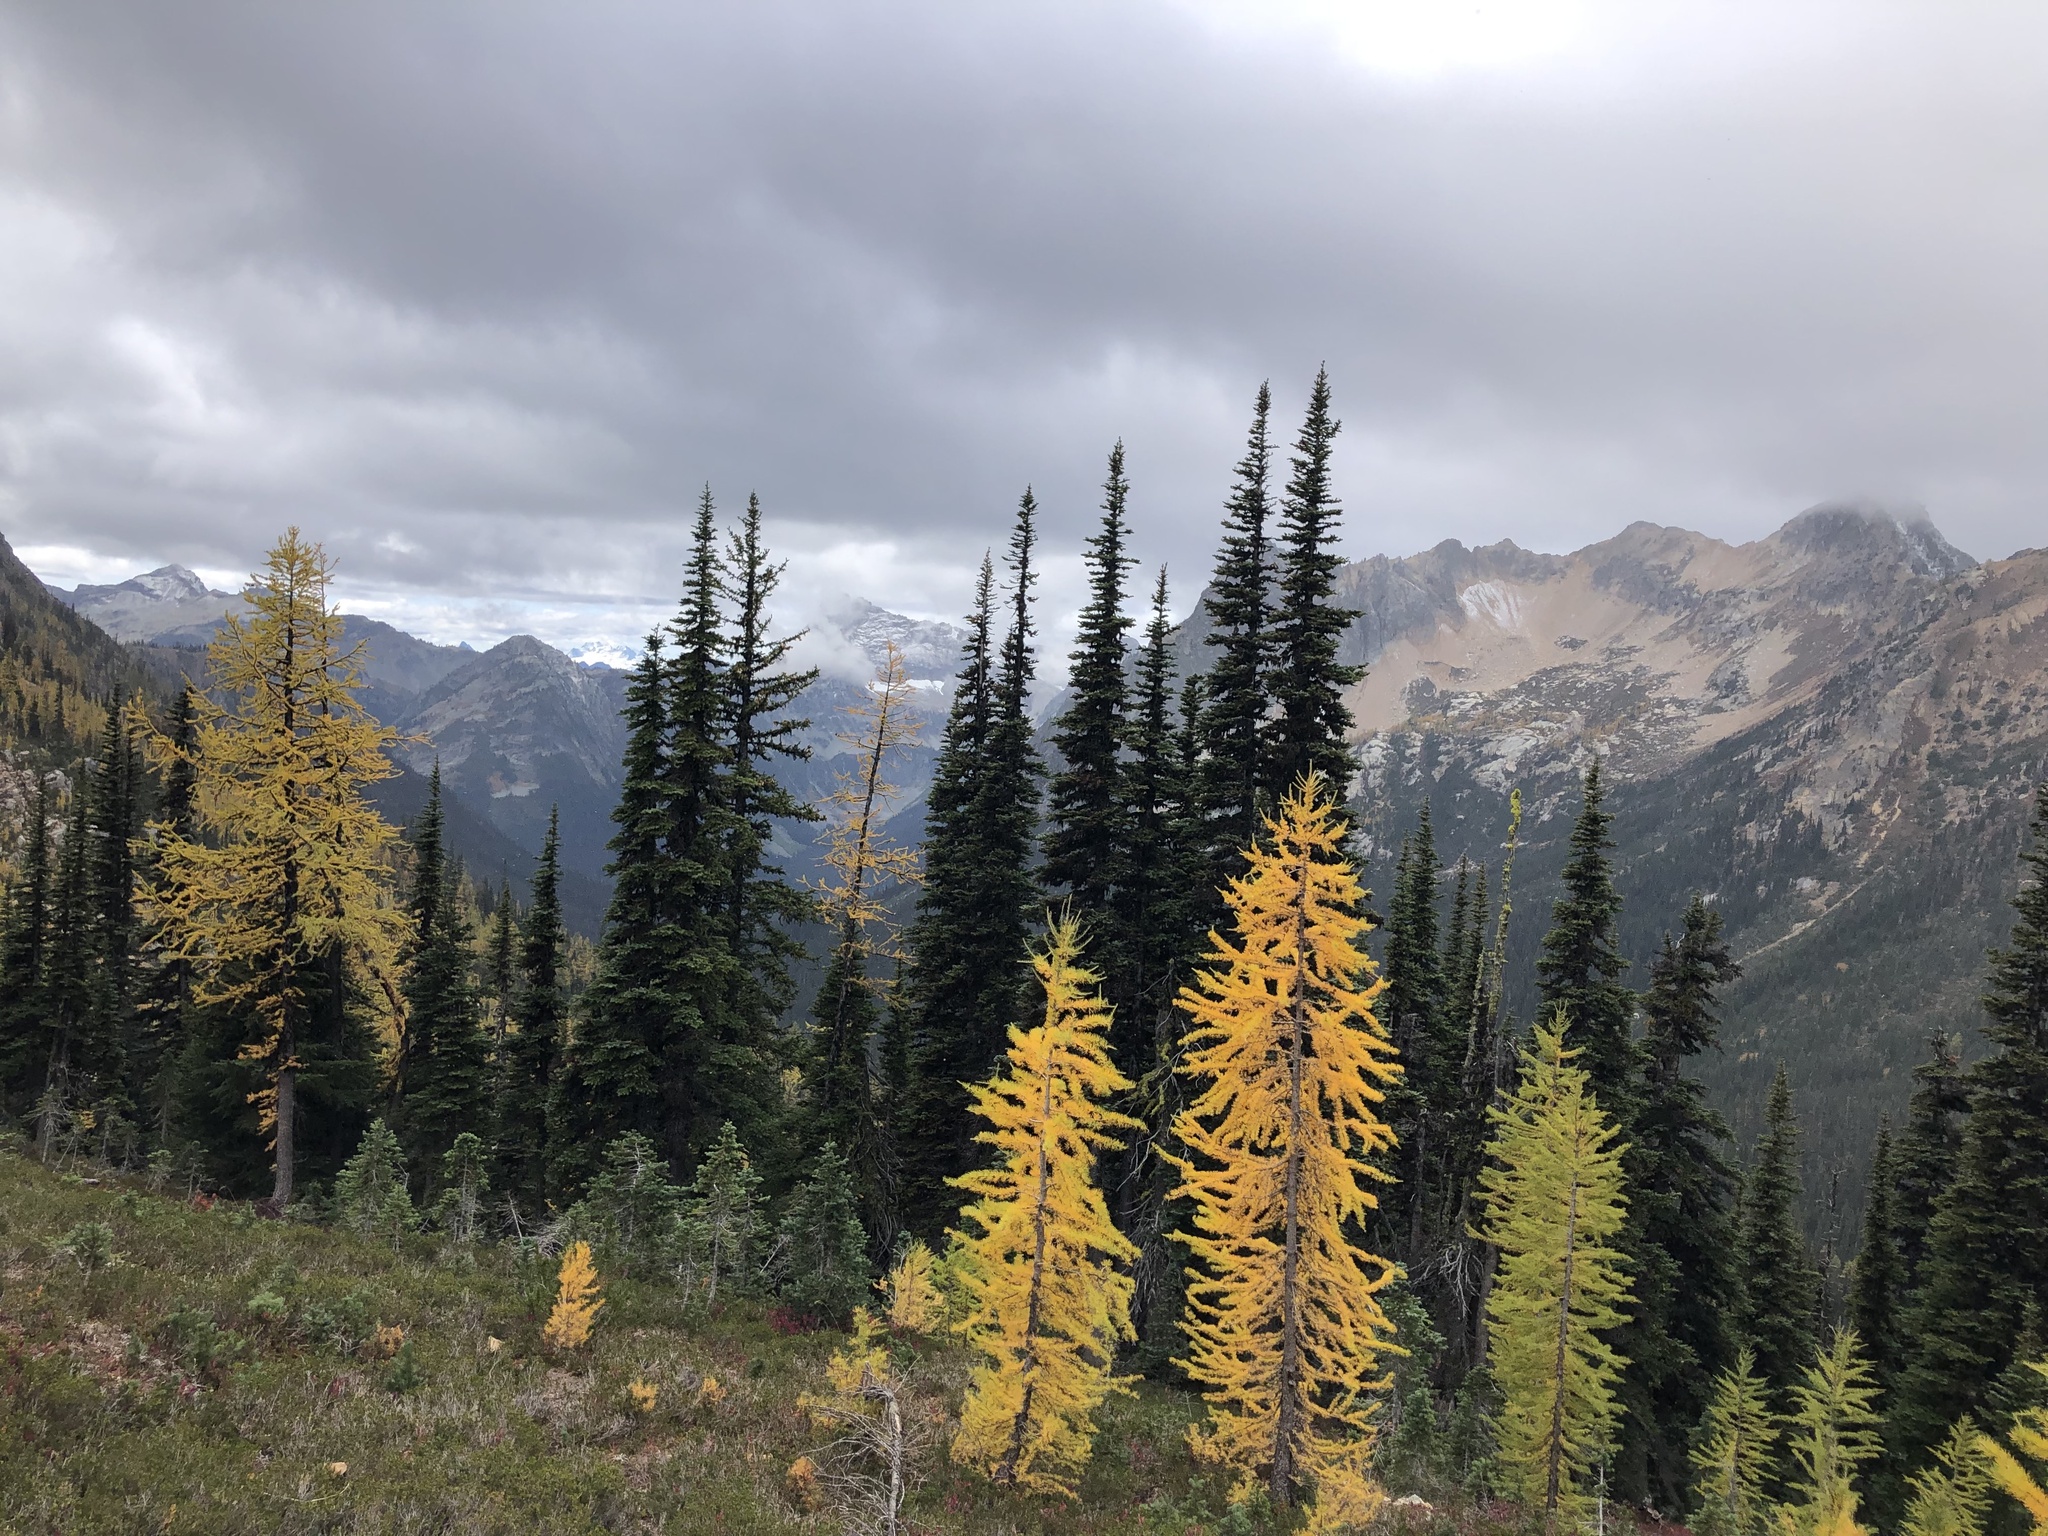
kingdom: Plantae
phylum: Tracheophyta
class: Pinopsida
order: Pinales
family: Pinaceae
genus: Picea
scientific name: Picea engelmannii
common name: Engelmann spruce
